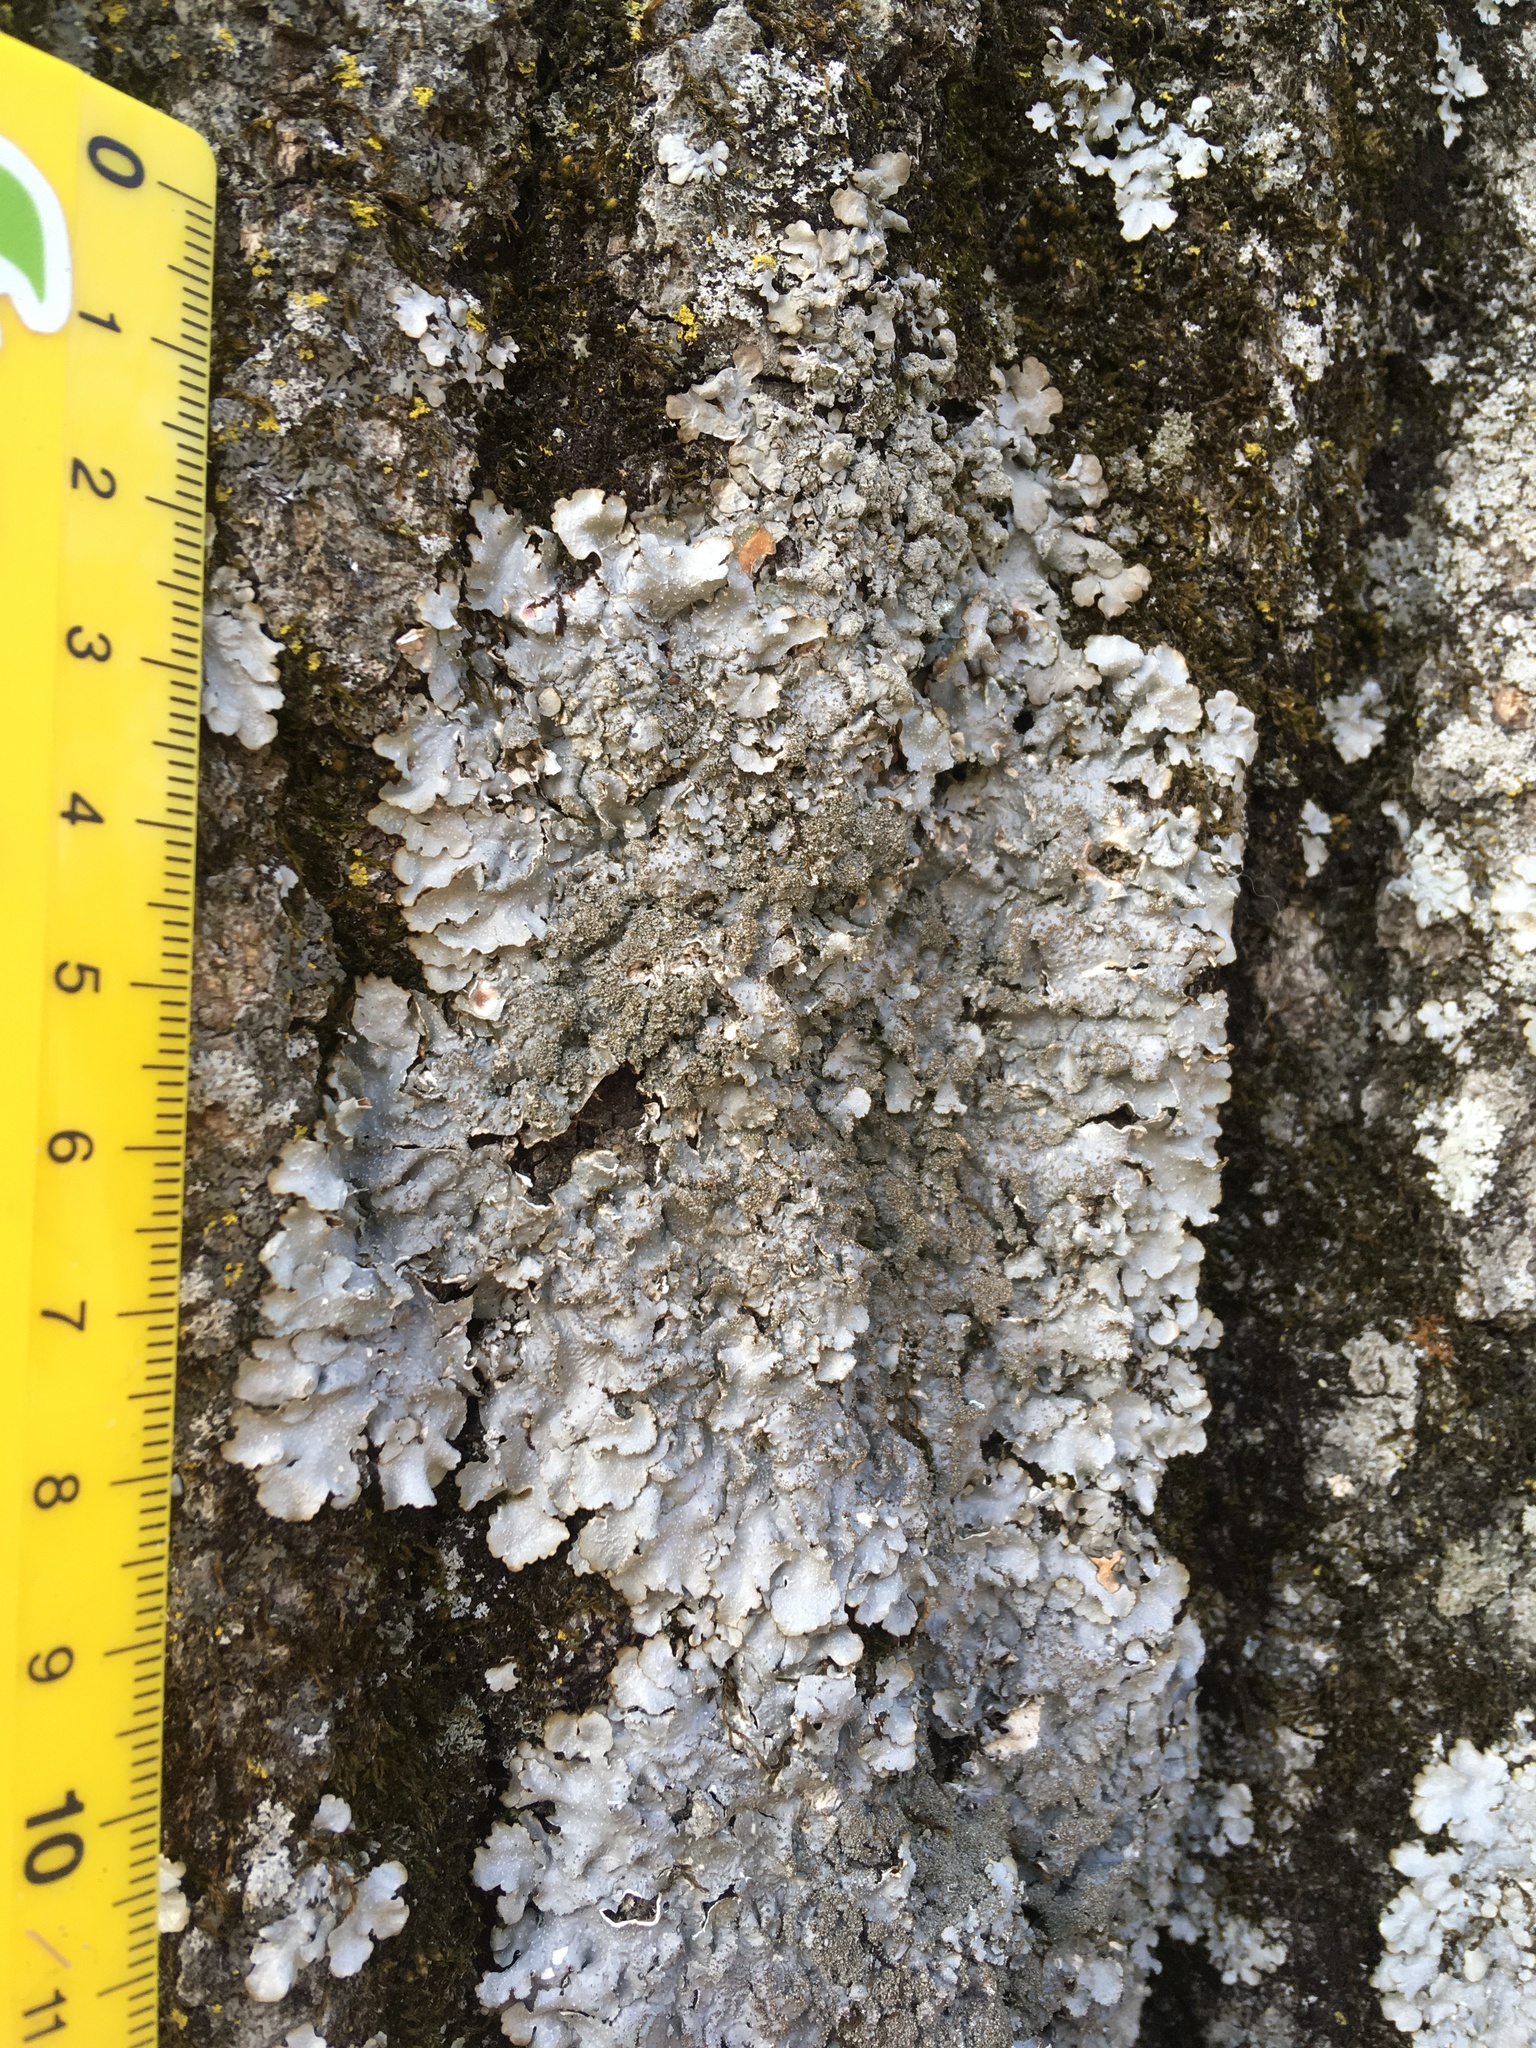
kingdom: Fungi
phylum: Ascomycota
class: Lecanoromycetes
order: Lecanorales
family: Parmeliaceae
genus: Punctelia
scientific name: Punctelia rudecta
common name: Rough speckled shield lichen
